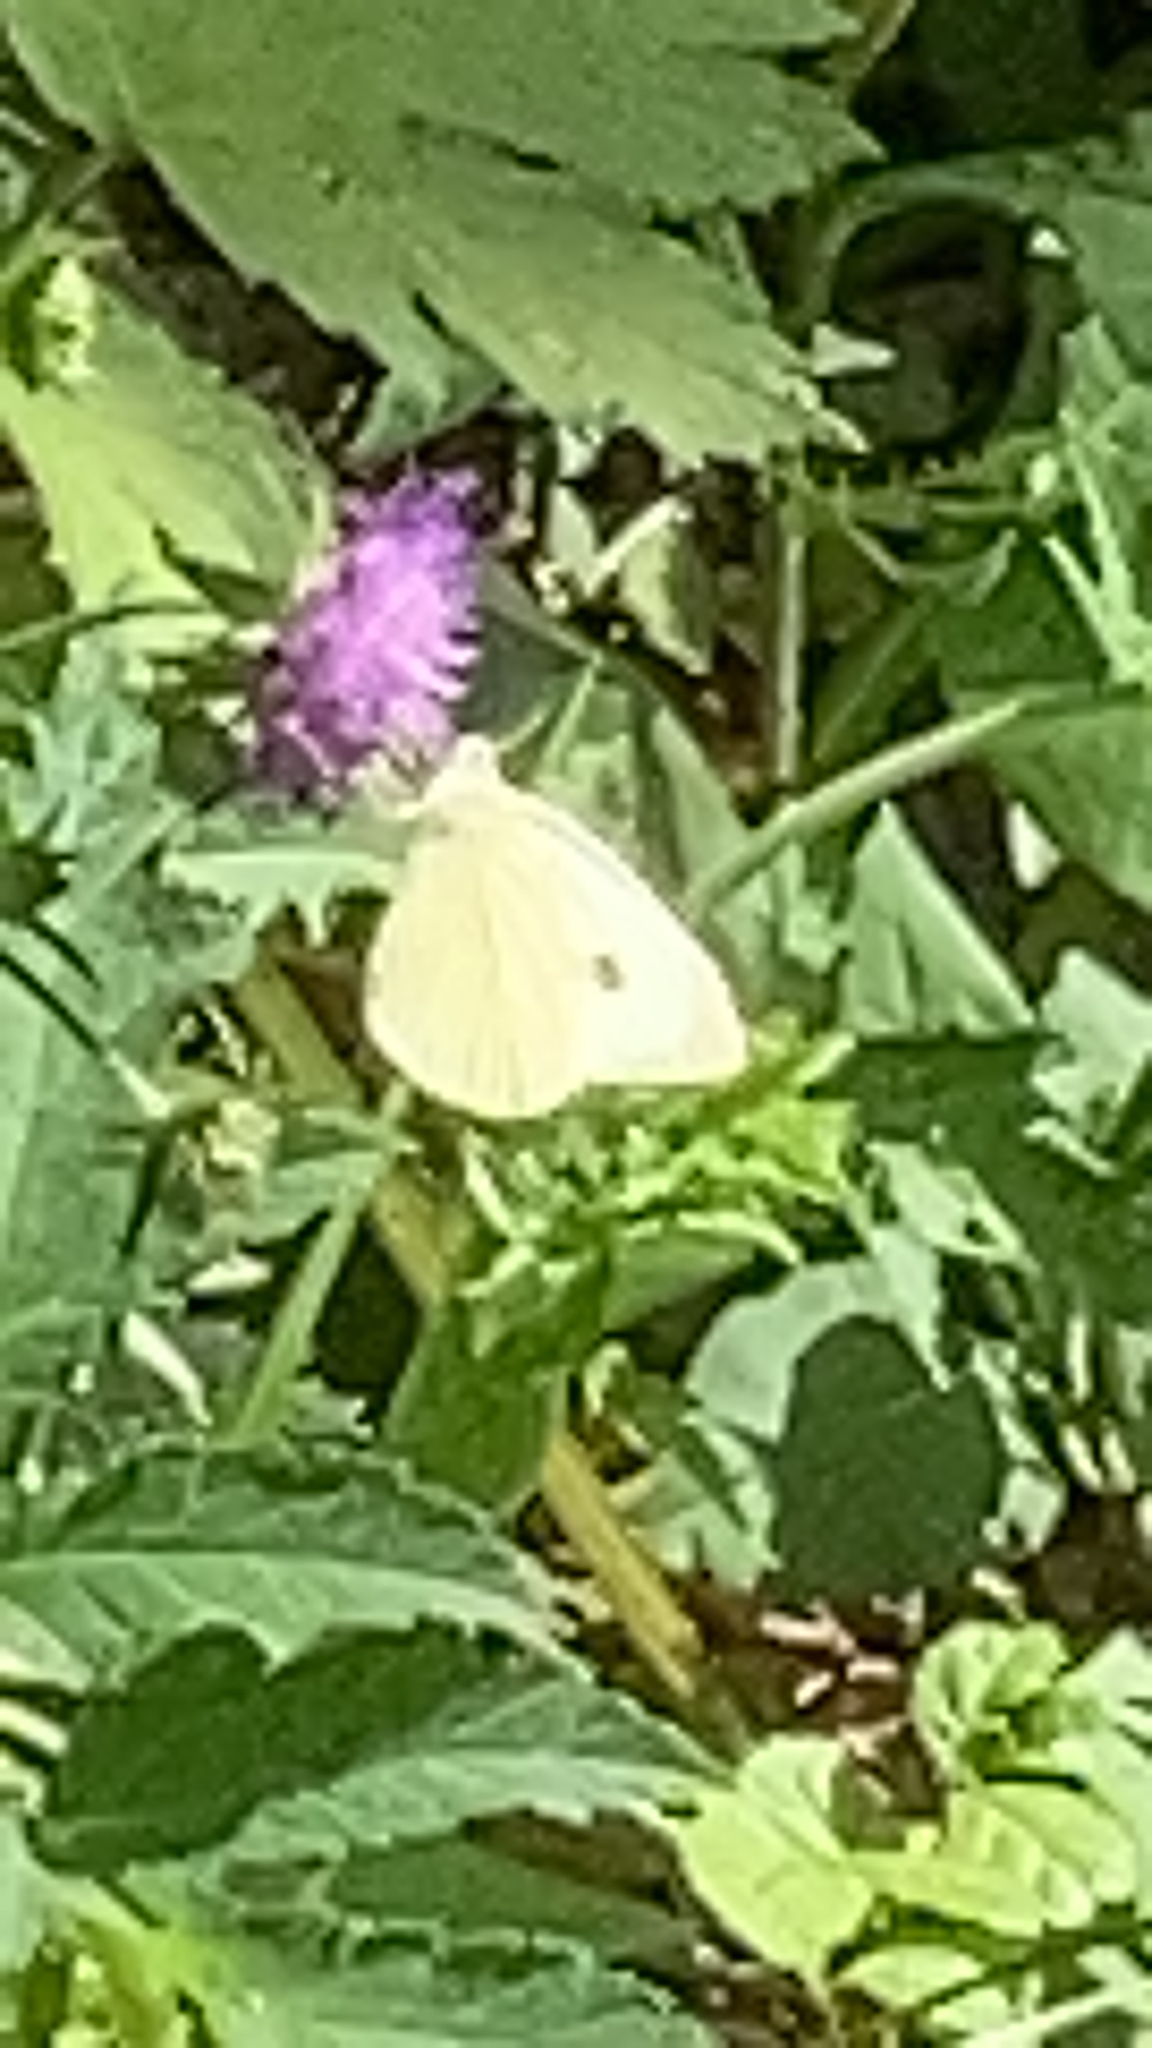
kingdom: Animalia
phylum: Arthropoda
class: Insecta
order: Lepidoptera
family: Pieridae
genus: Pieris
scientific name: Pieris rapae
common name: Small white
